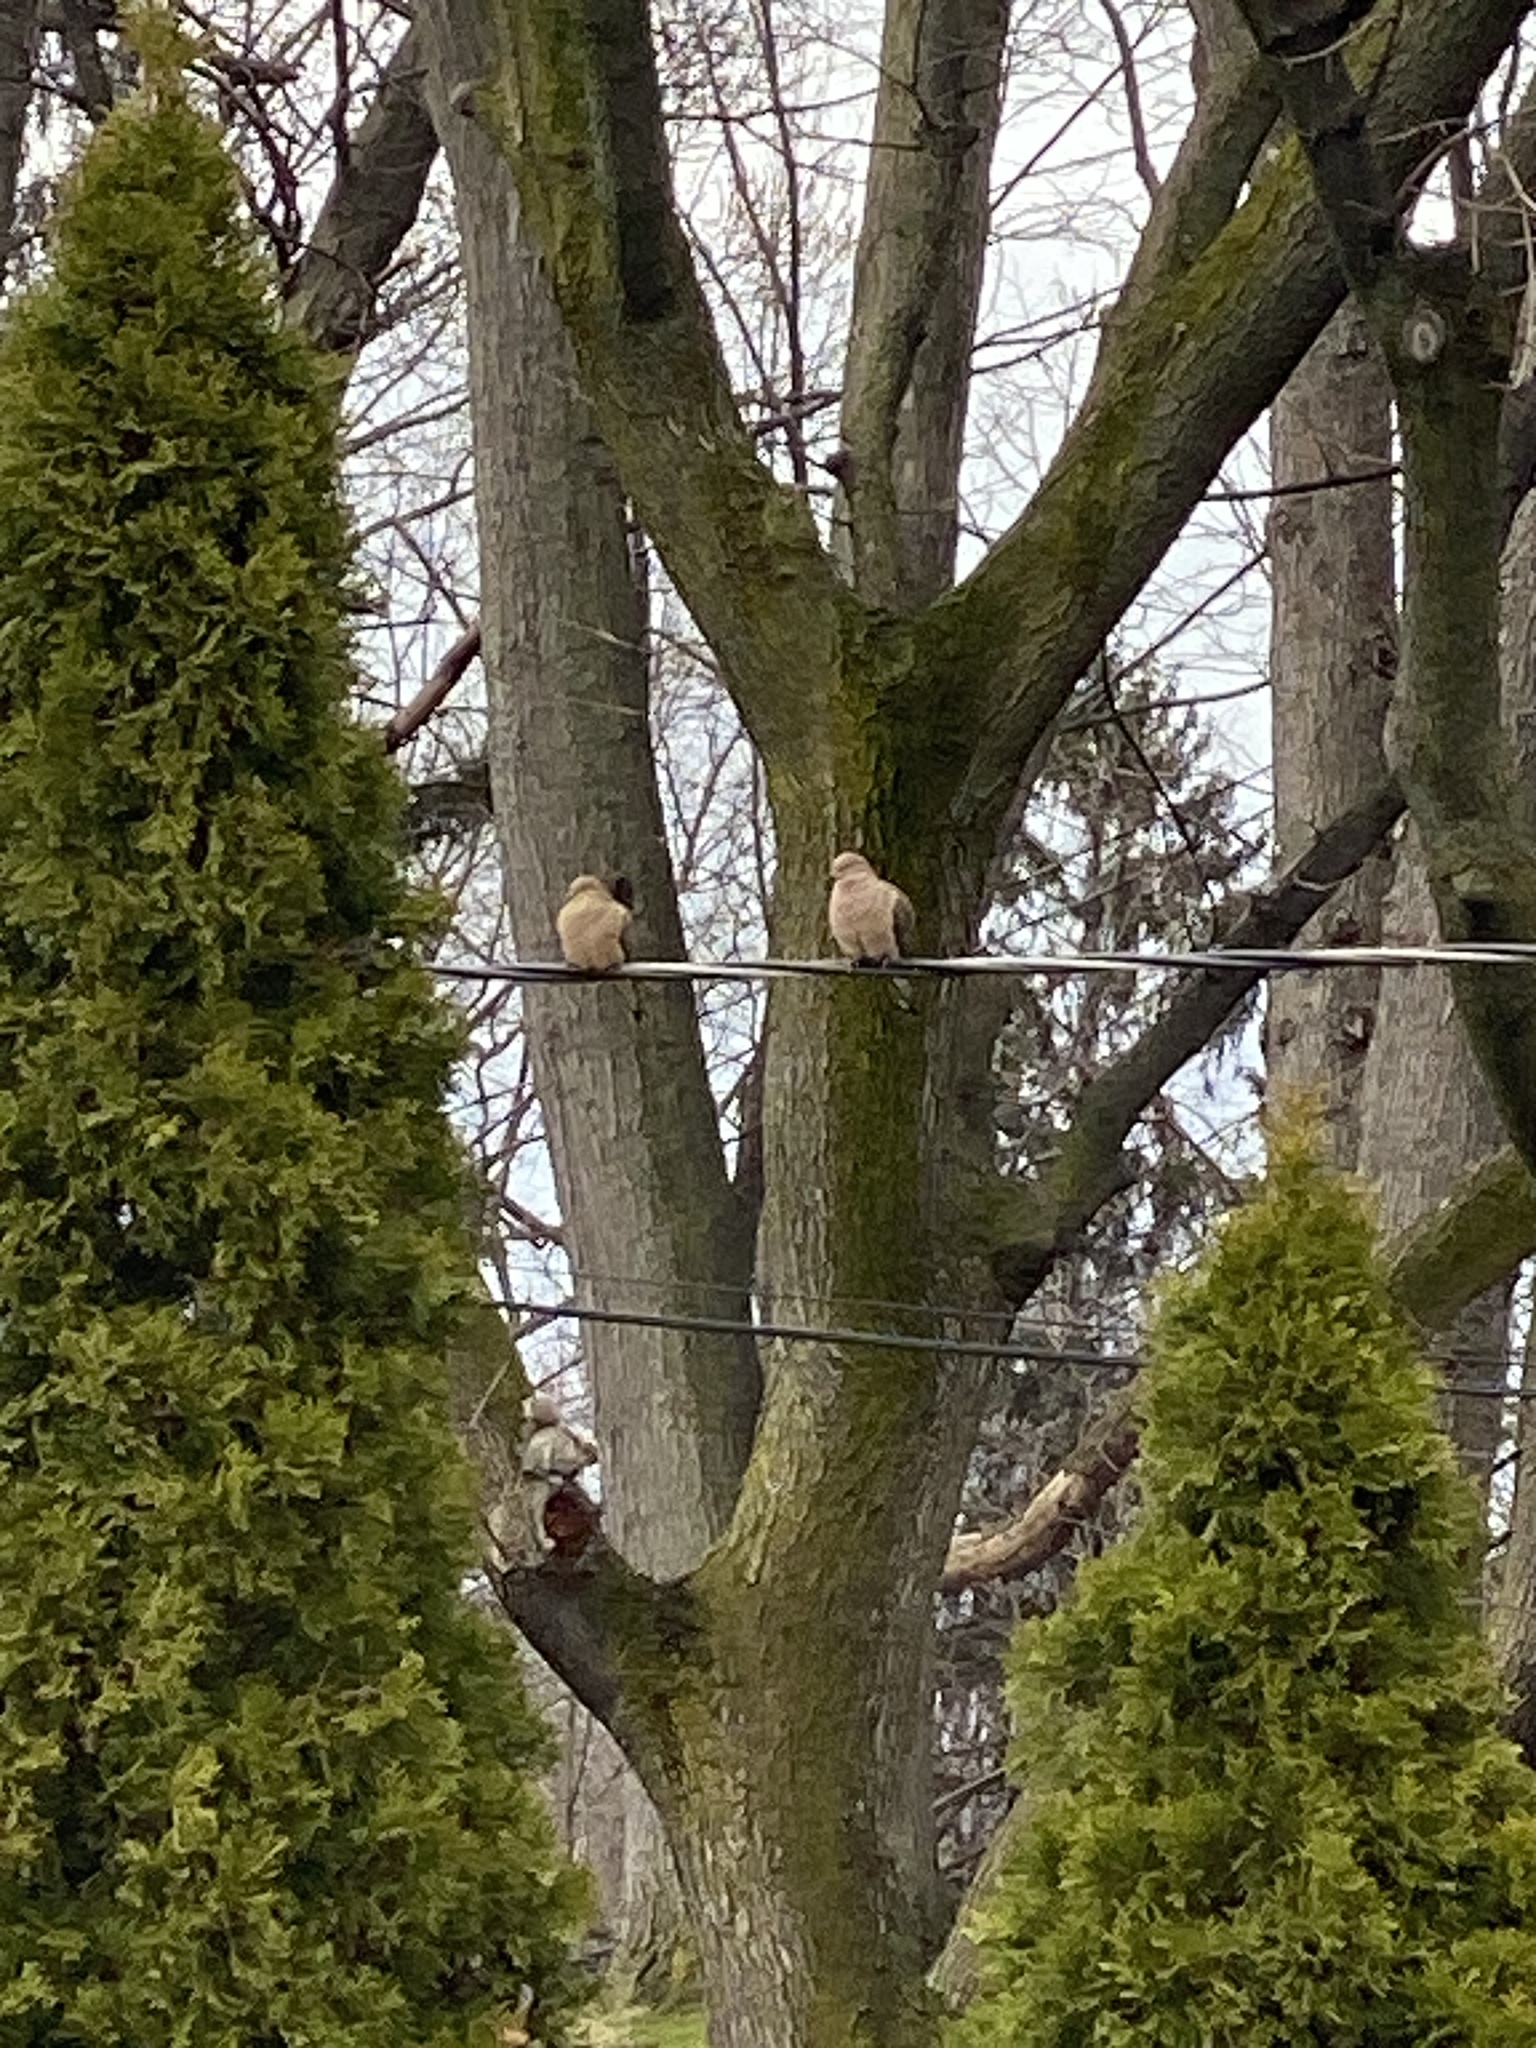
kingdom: Animalia
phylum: Chordata
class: Aves
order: Columbiformes
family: Columbidae
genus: Zenaida
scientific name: Zenaida macroura
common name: Mourning dove
